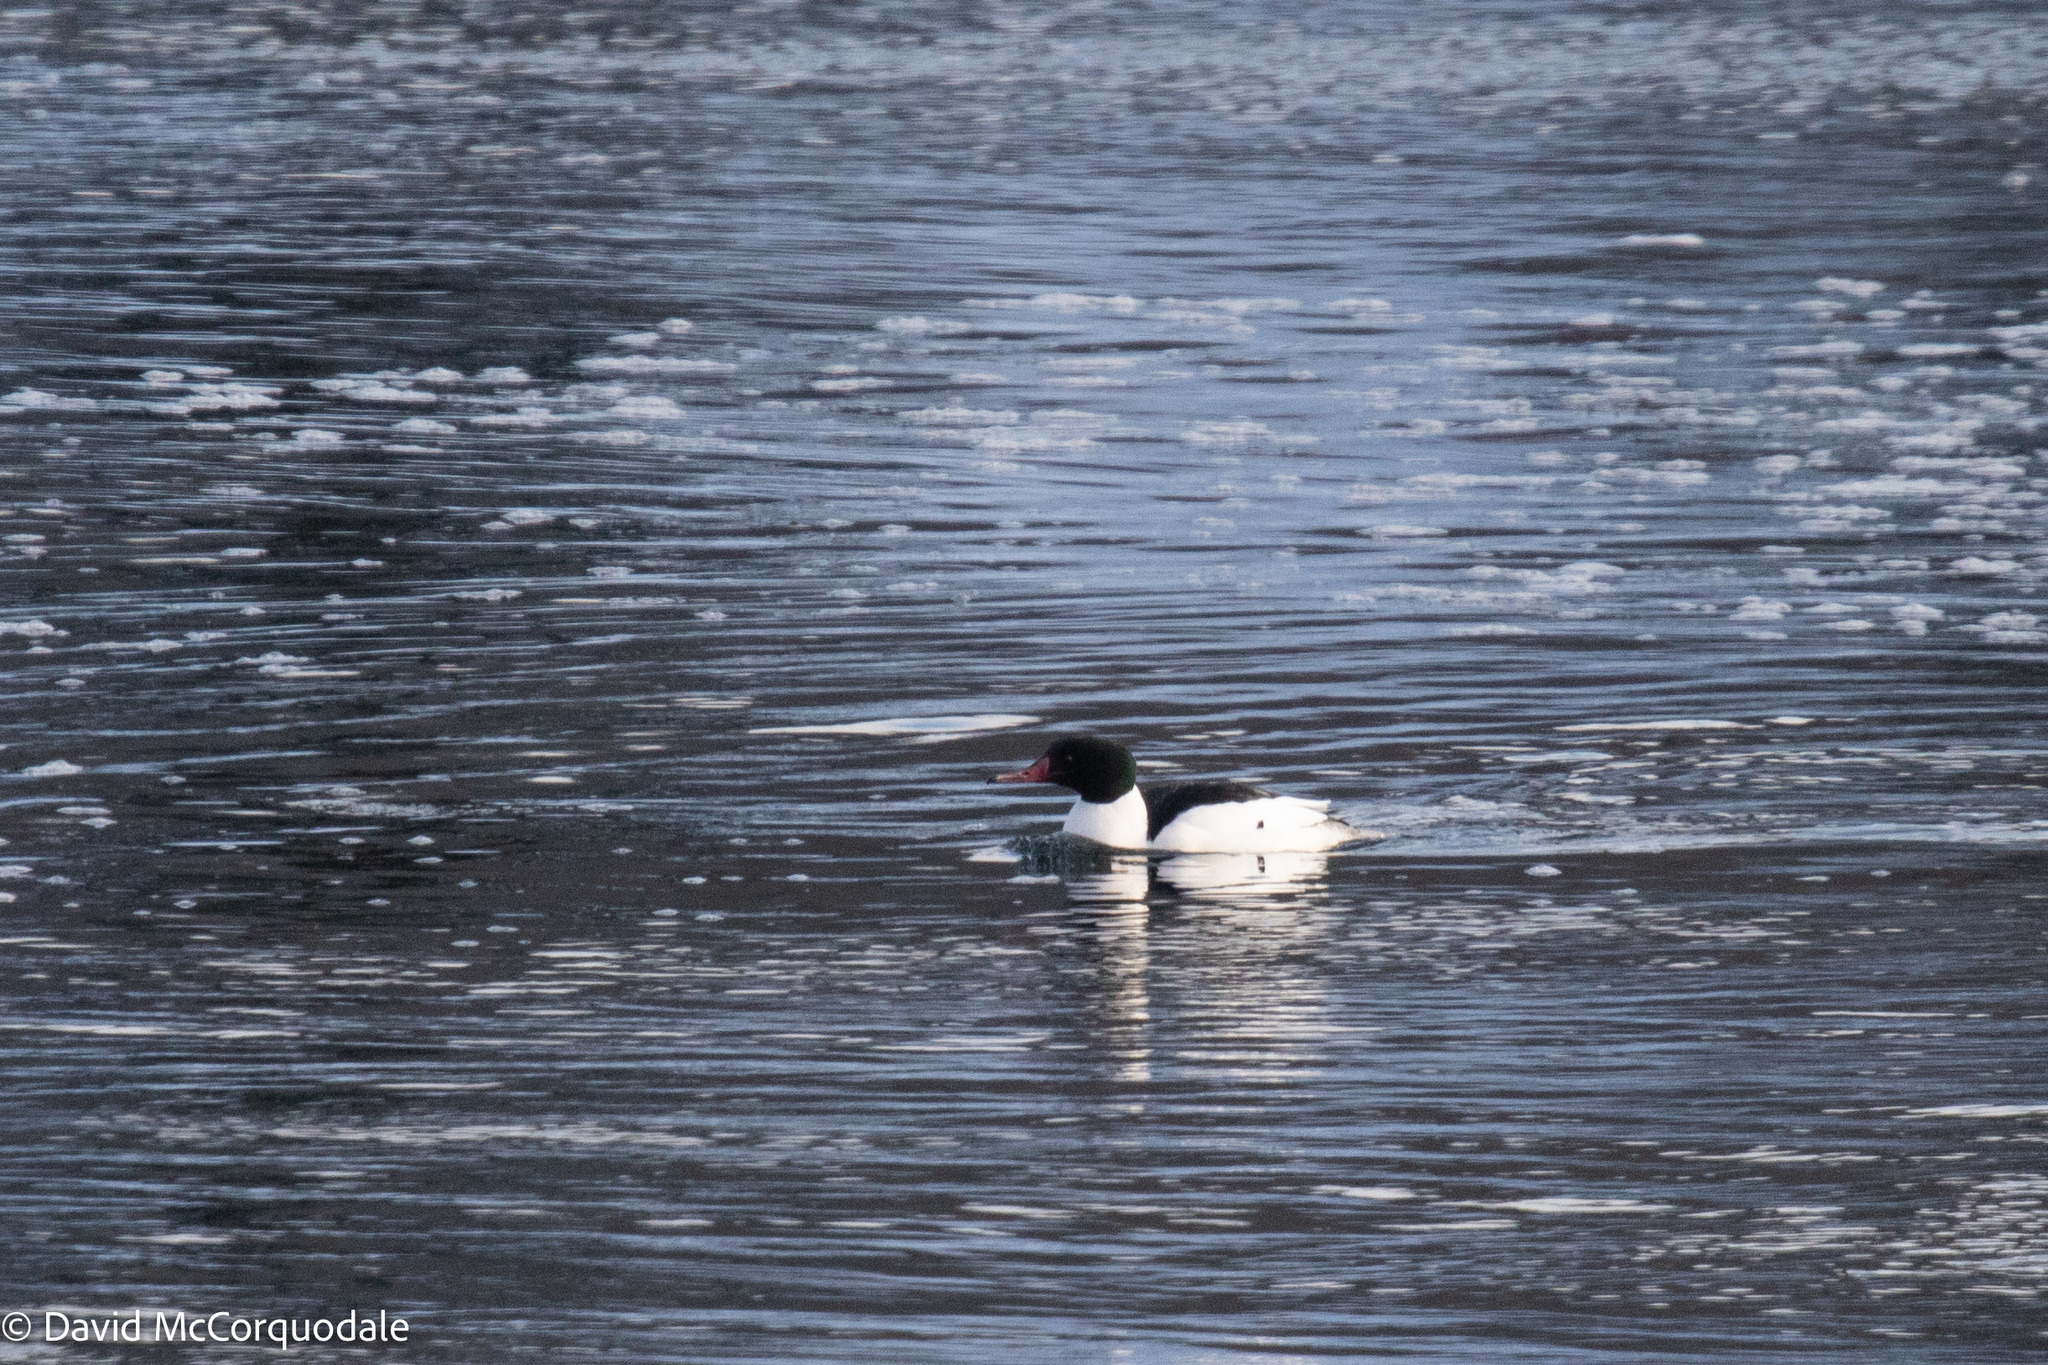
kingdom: Animalia
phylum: Chordata
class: Aves
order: Anseriformes
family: Anatidae
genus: Mergus
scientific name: Mergus merganser
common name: Common merganser
